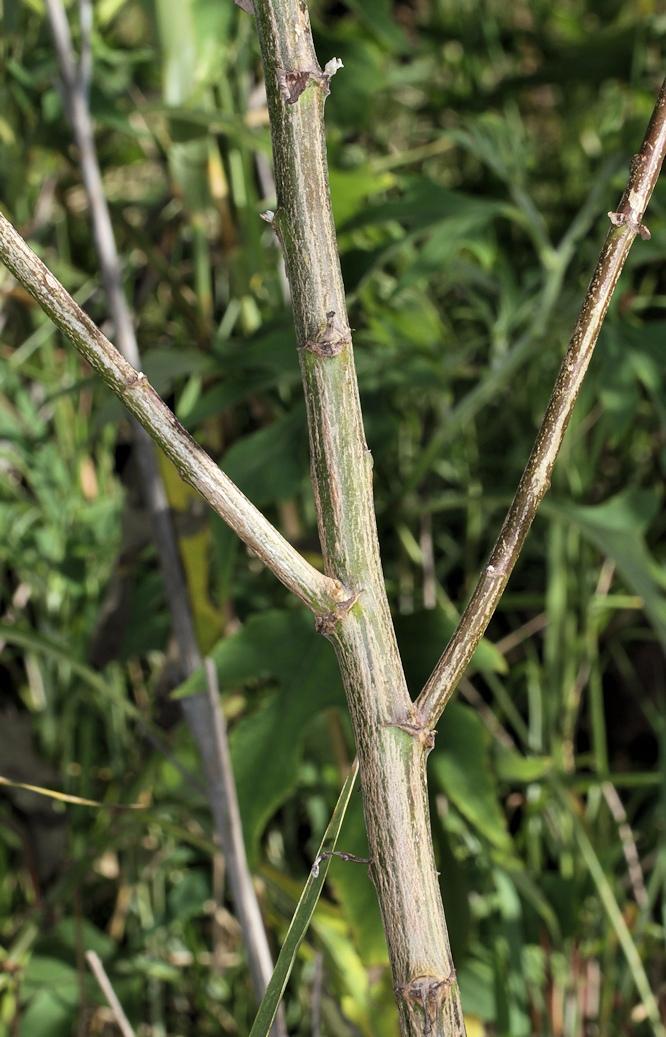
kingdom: Plantae
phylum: Tracheophyta
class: Magnoliopsida
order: Asterales
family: Asteraceae
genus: Tithonia
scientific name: Tithonia diversifolia
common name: Tree marigold
